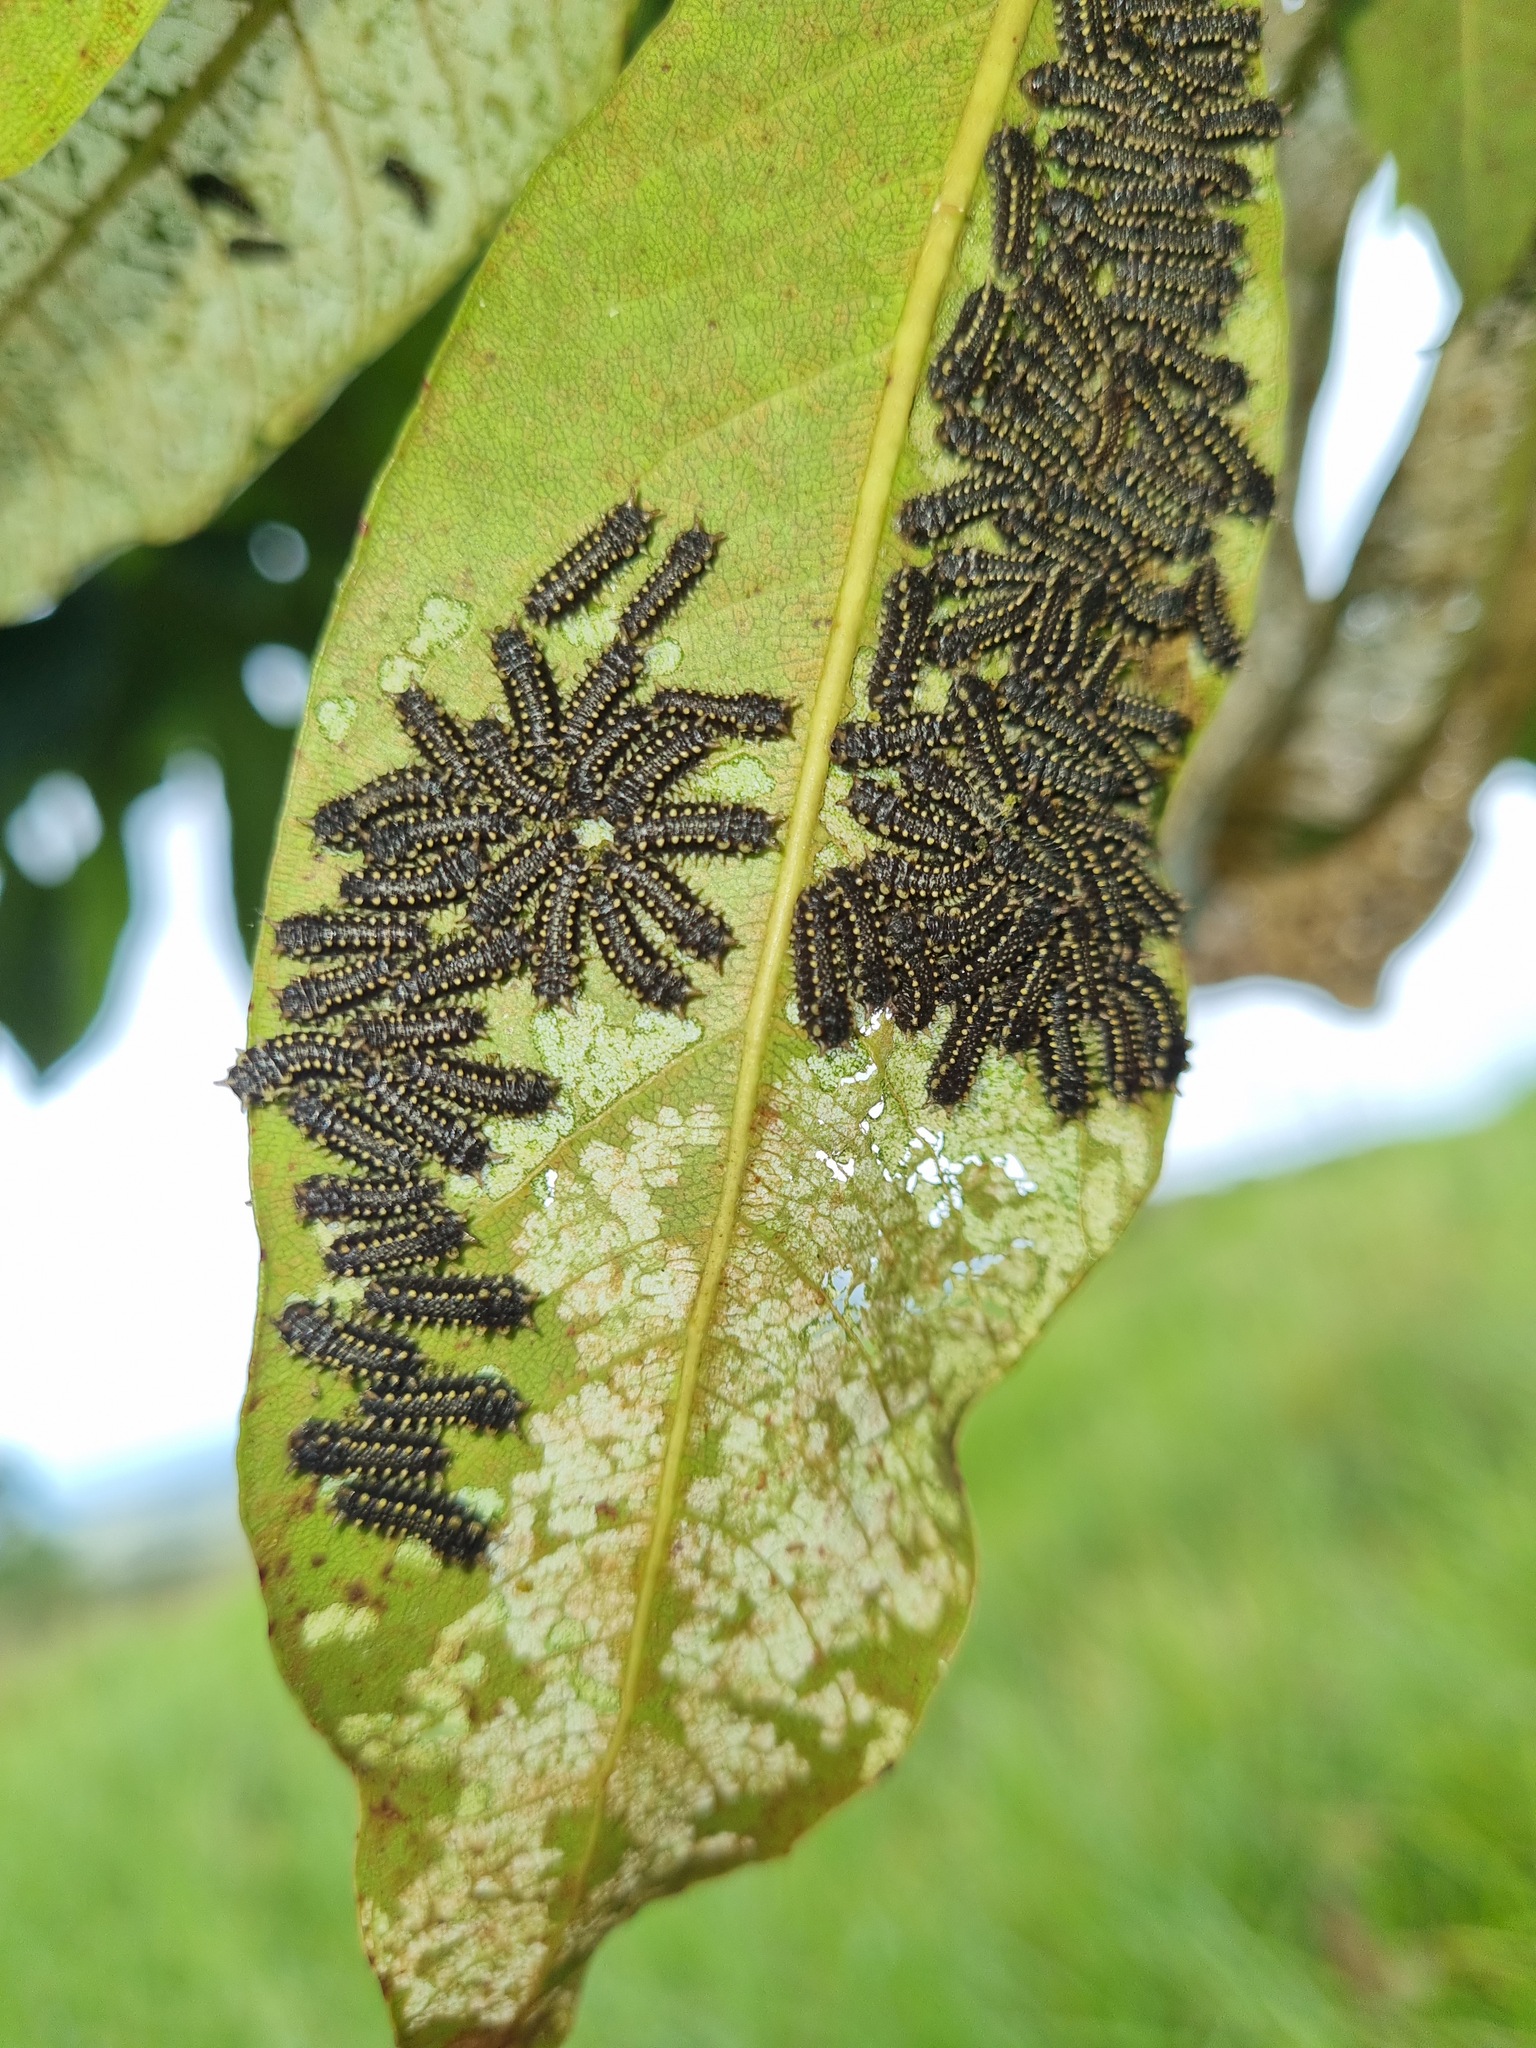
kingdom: Animalia
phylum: Arthropoda
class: Insecta
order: Lepidoptera
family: Limacodidae
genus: Doratifera
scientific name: Doratifera casta
